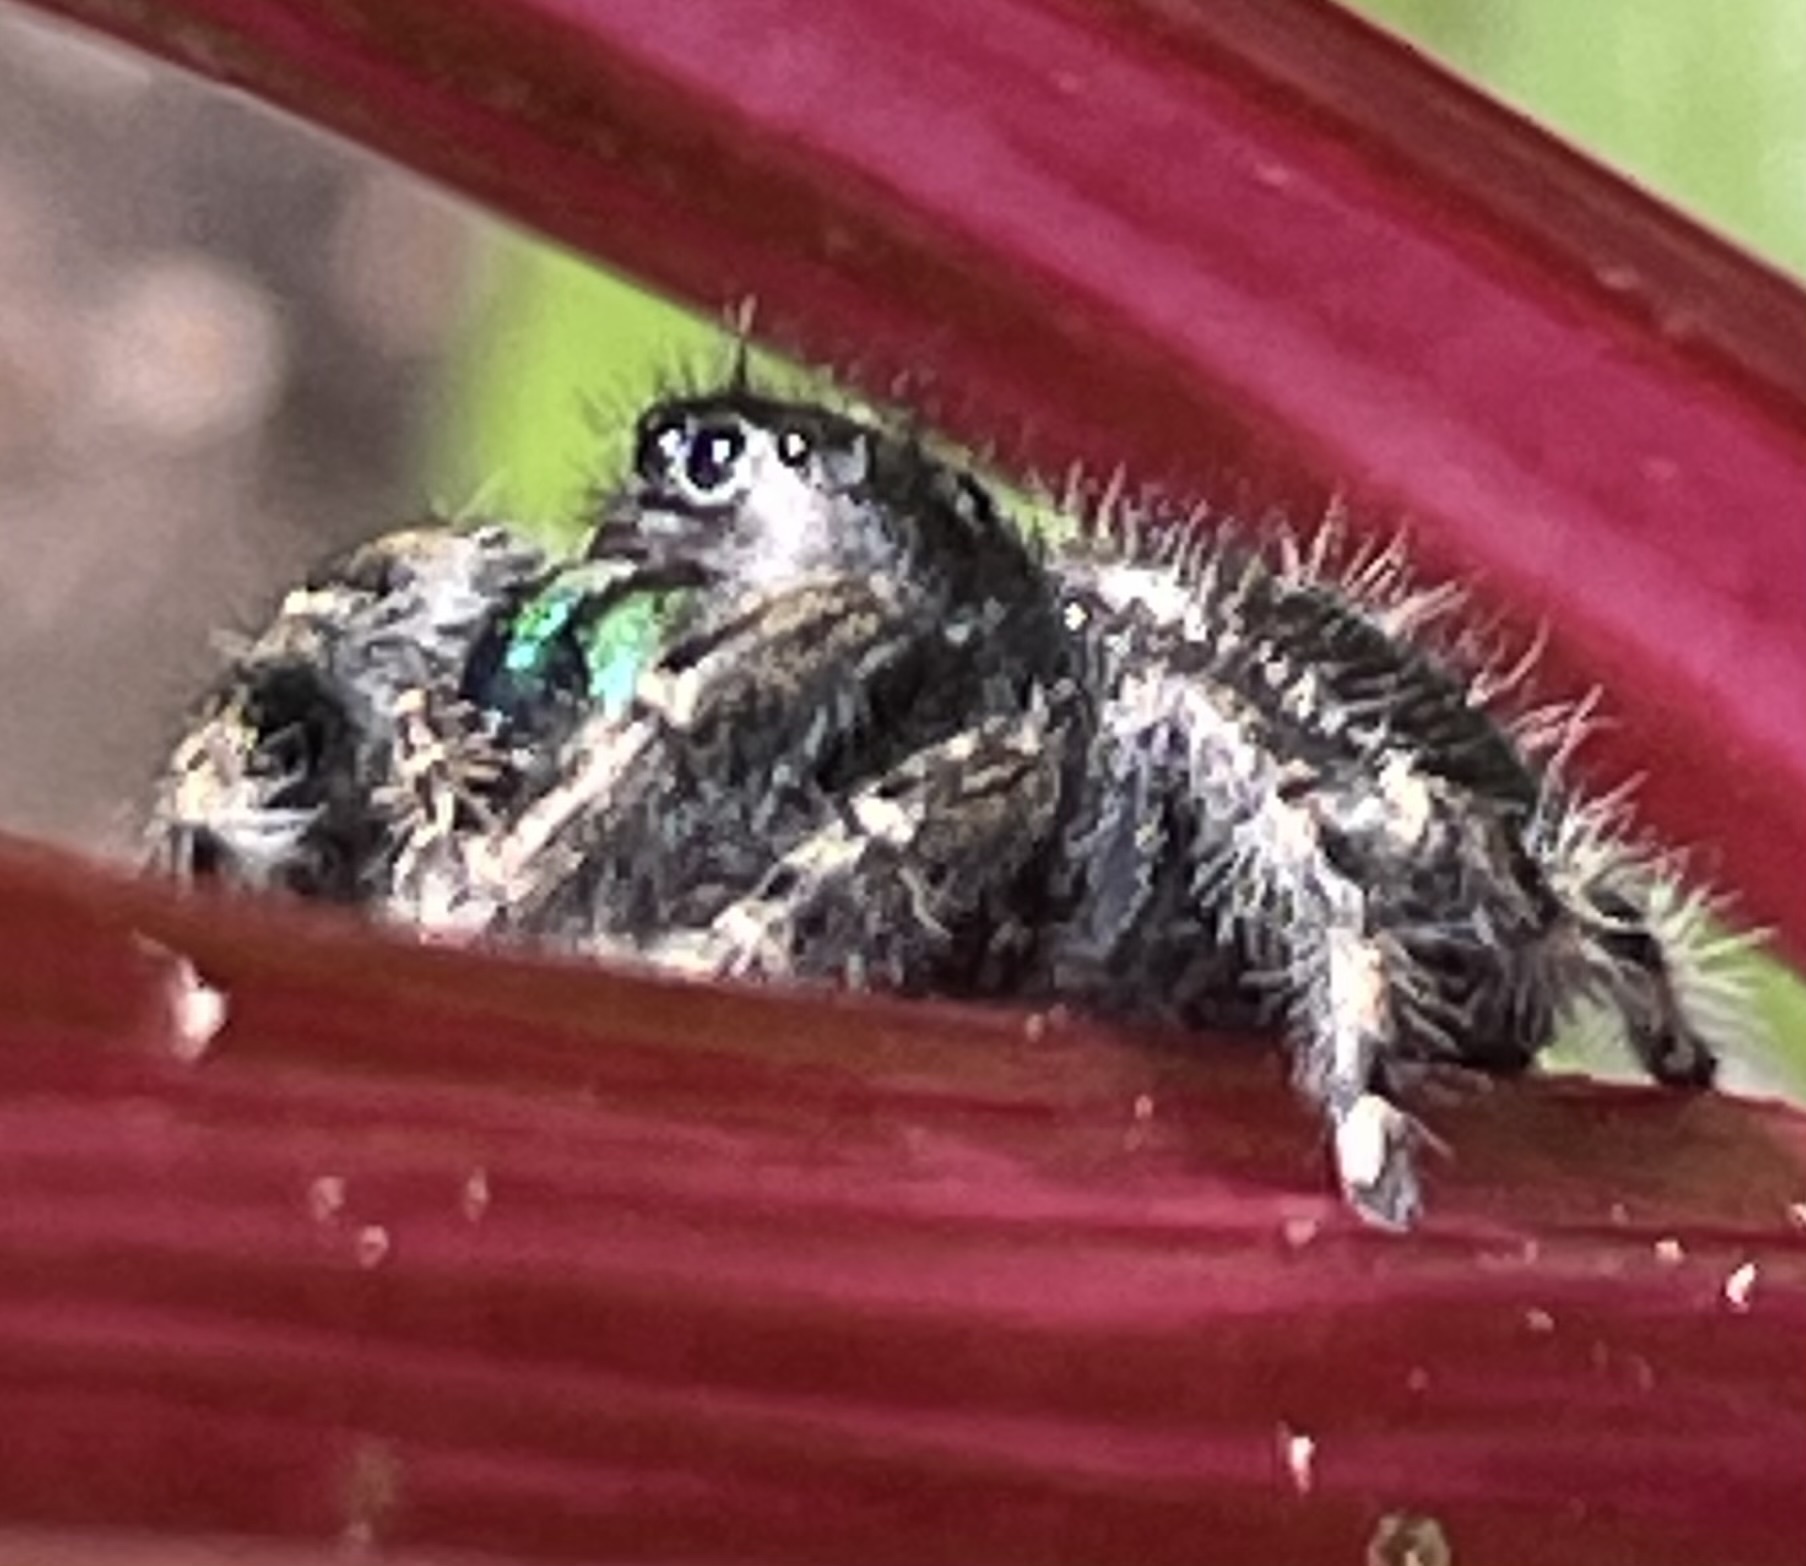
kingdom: Animalia
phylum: Arthropoda
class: Arachnida
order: Araneae
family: Salticidae
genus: Phidippus
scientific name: Phidippus audax
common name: Bold jumper
